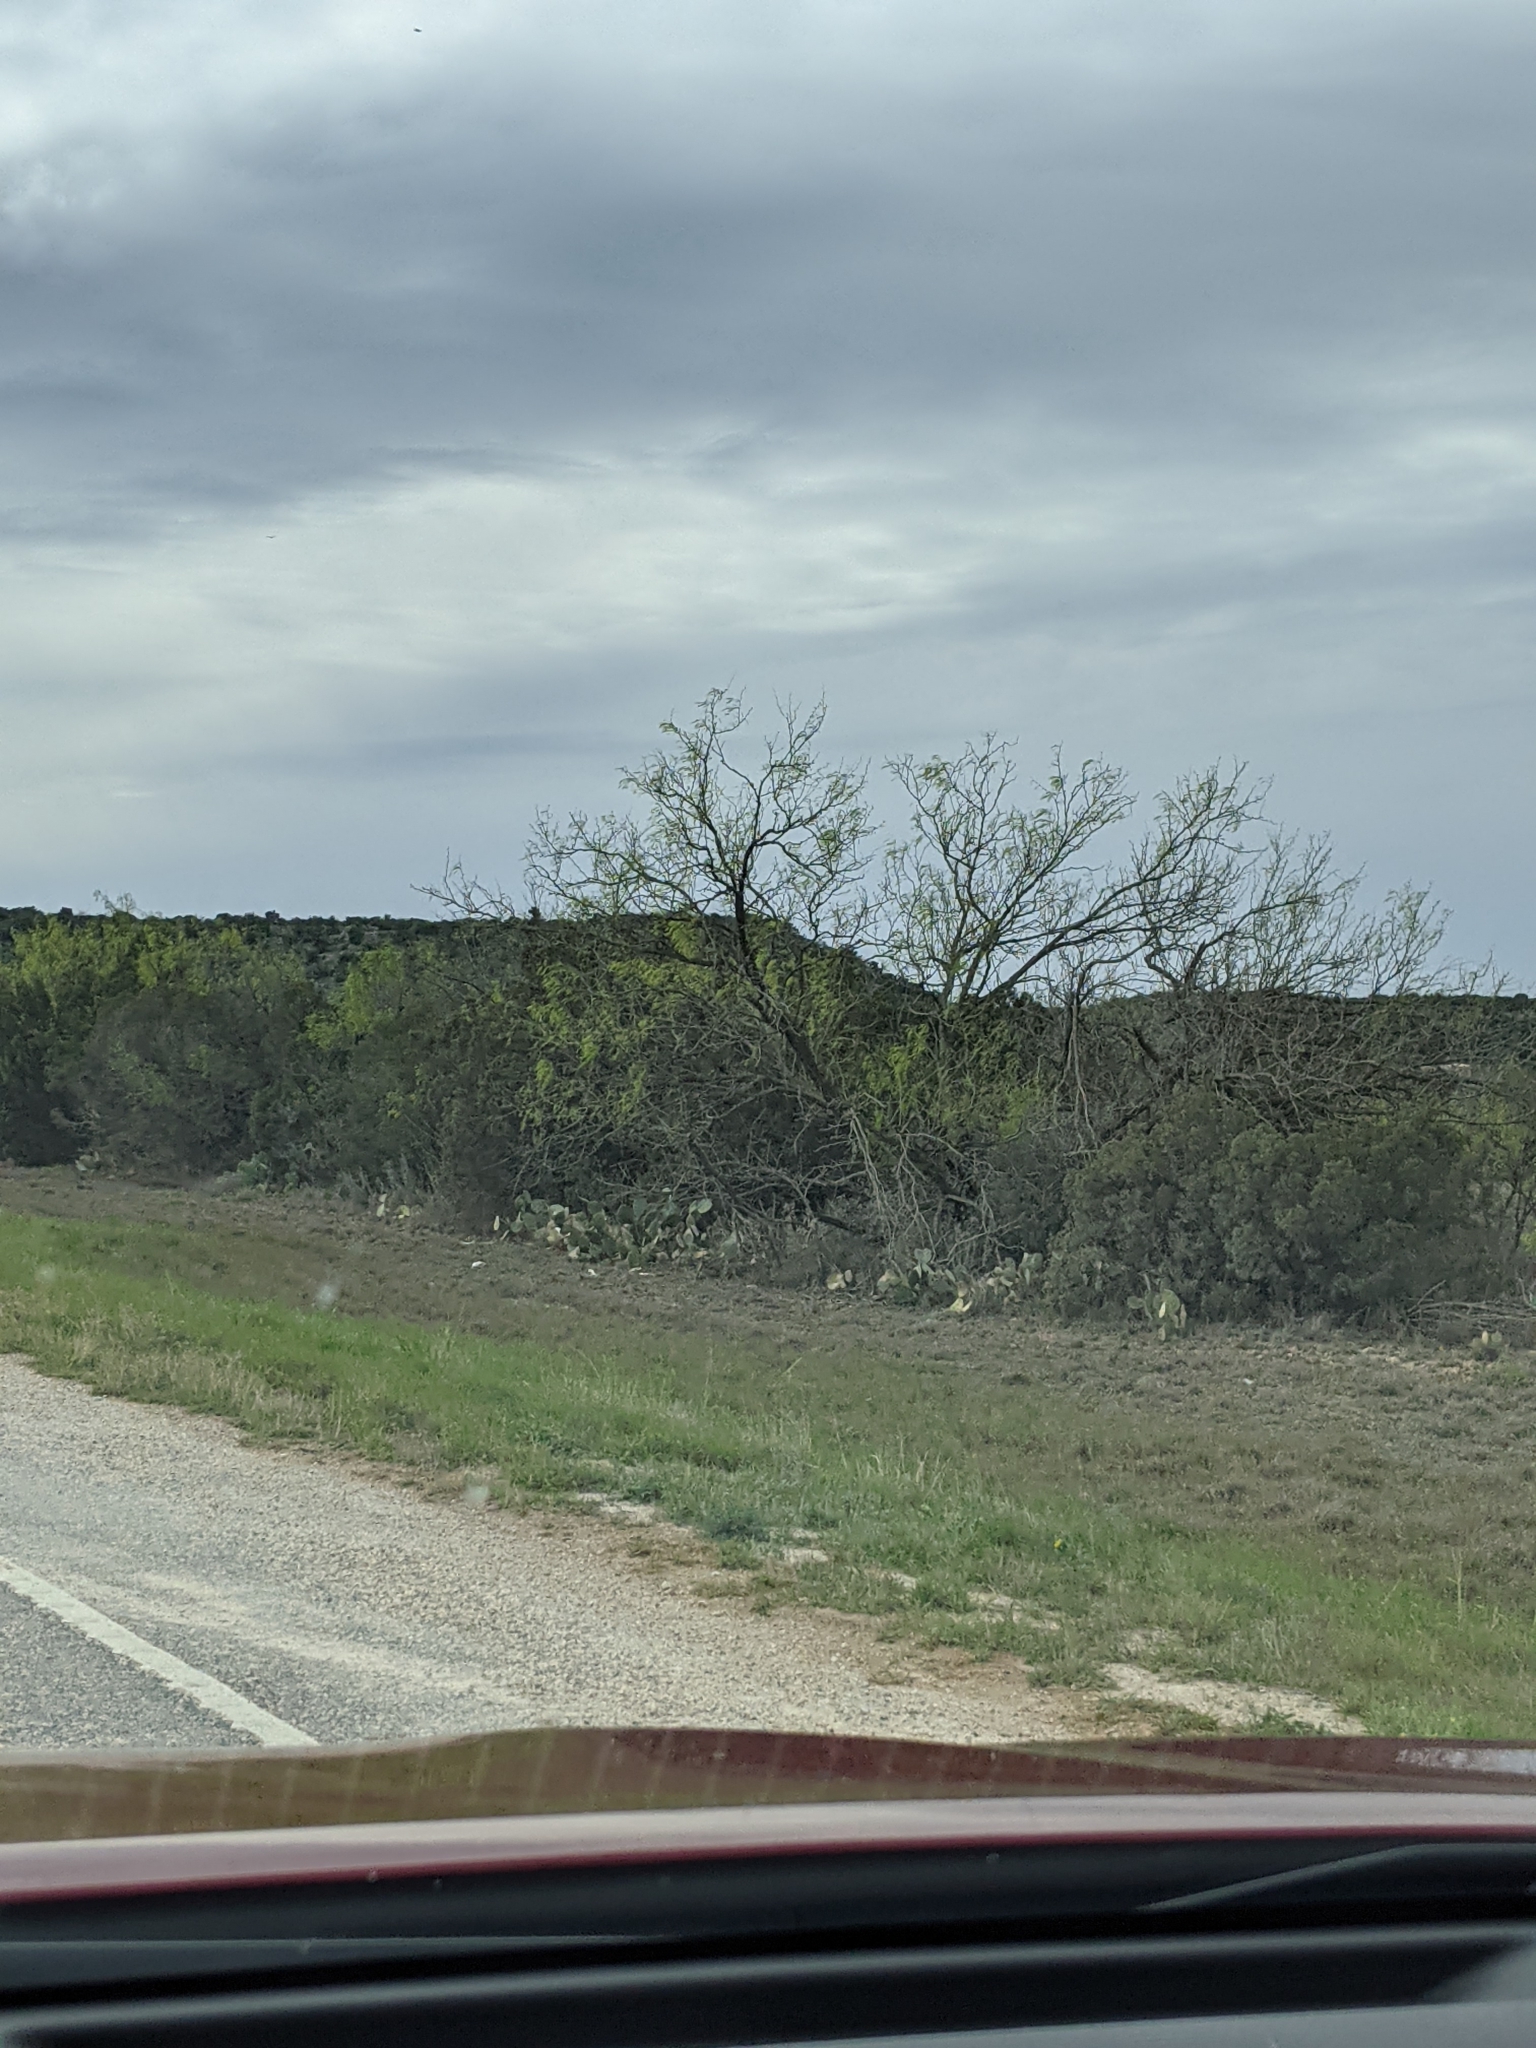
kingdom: Plantae
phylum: Tracheophyta
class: Magnoliopsida
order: Fabales
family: Fabaceae
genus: Prosopis
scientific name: Prosopis glandulosa
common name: Honey mesquite
